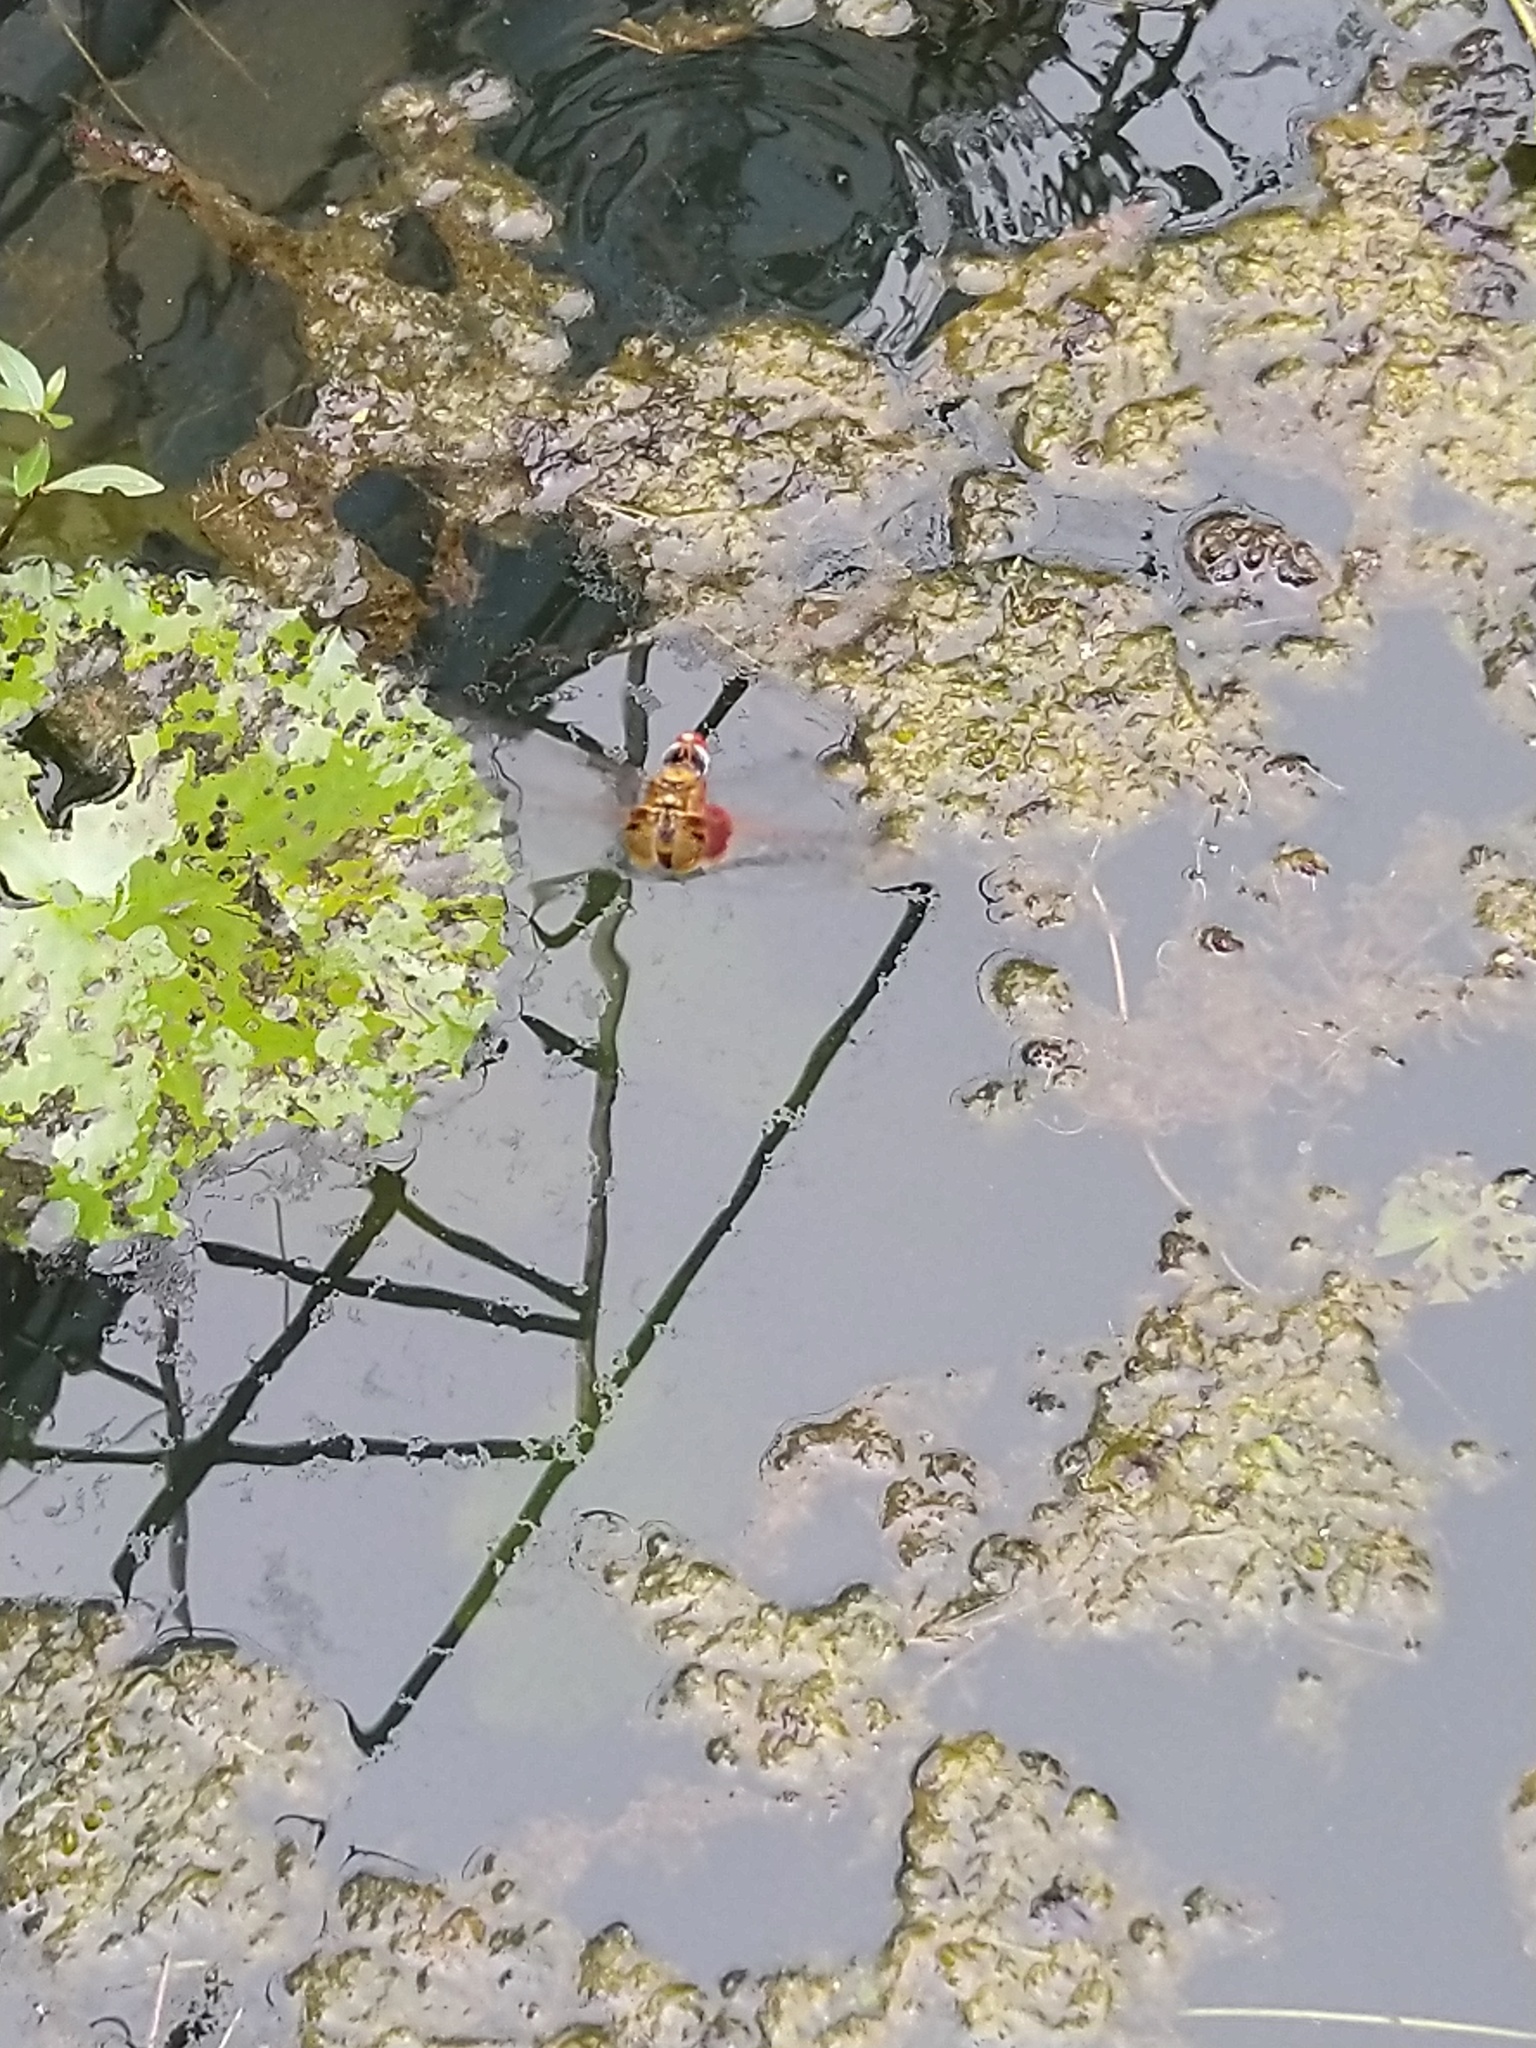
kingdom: Animalia
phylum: Arthropoda
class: Insecta
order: Odonata
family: Libellulidae
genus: Urothemis
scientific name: Urothemis signata
